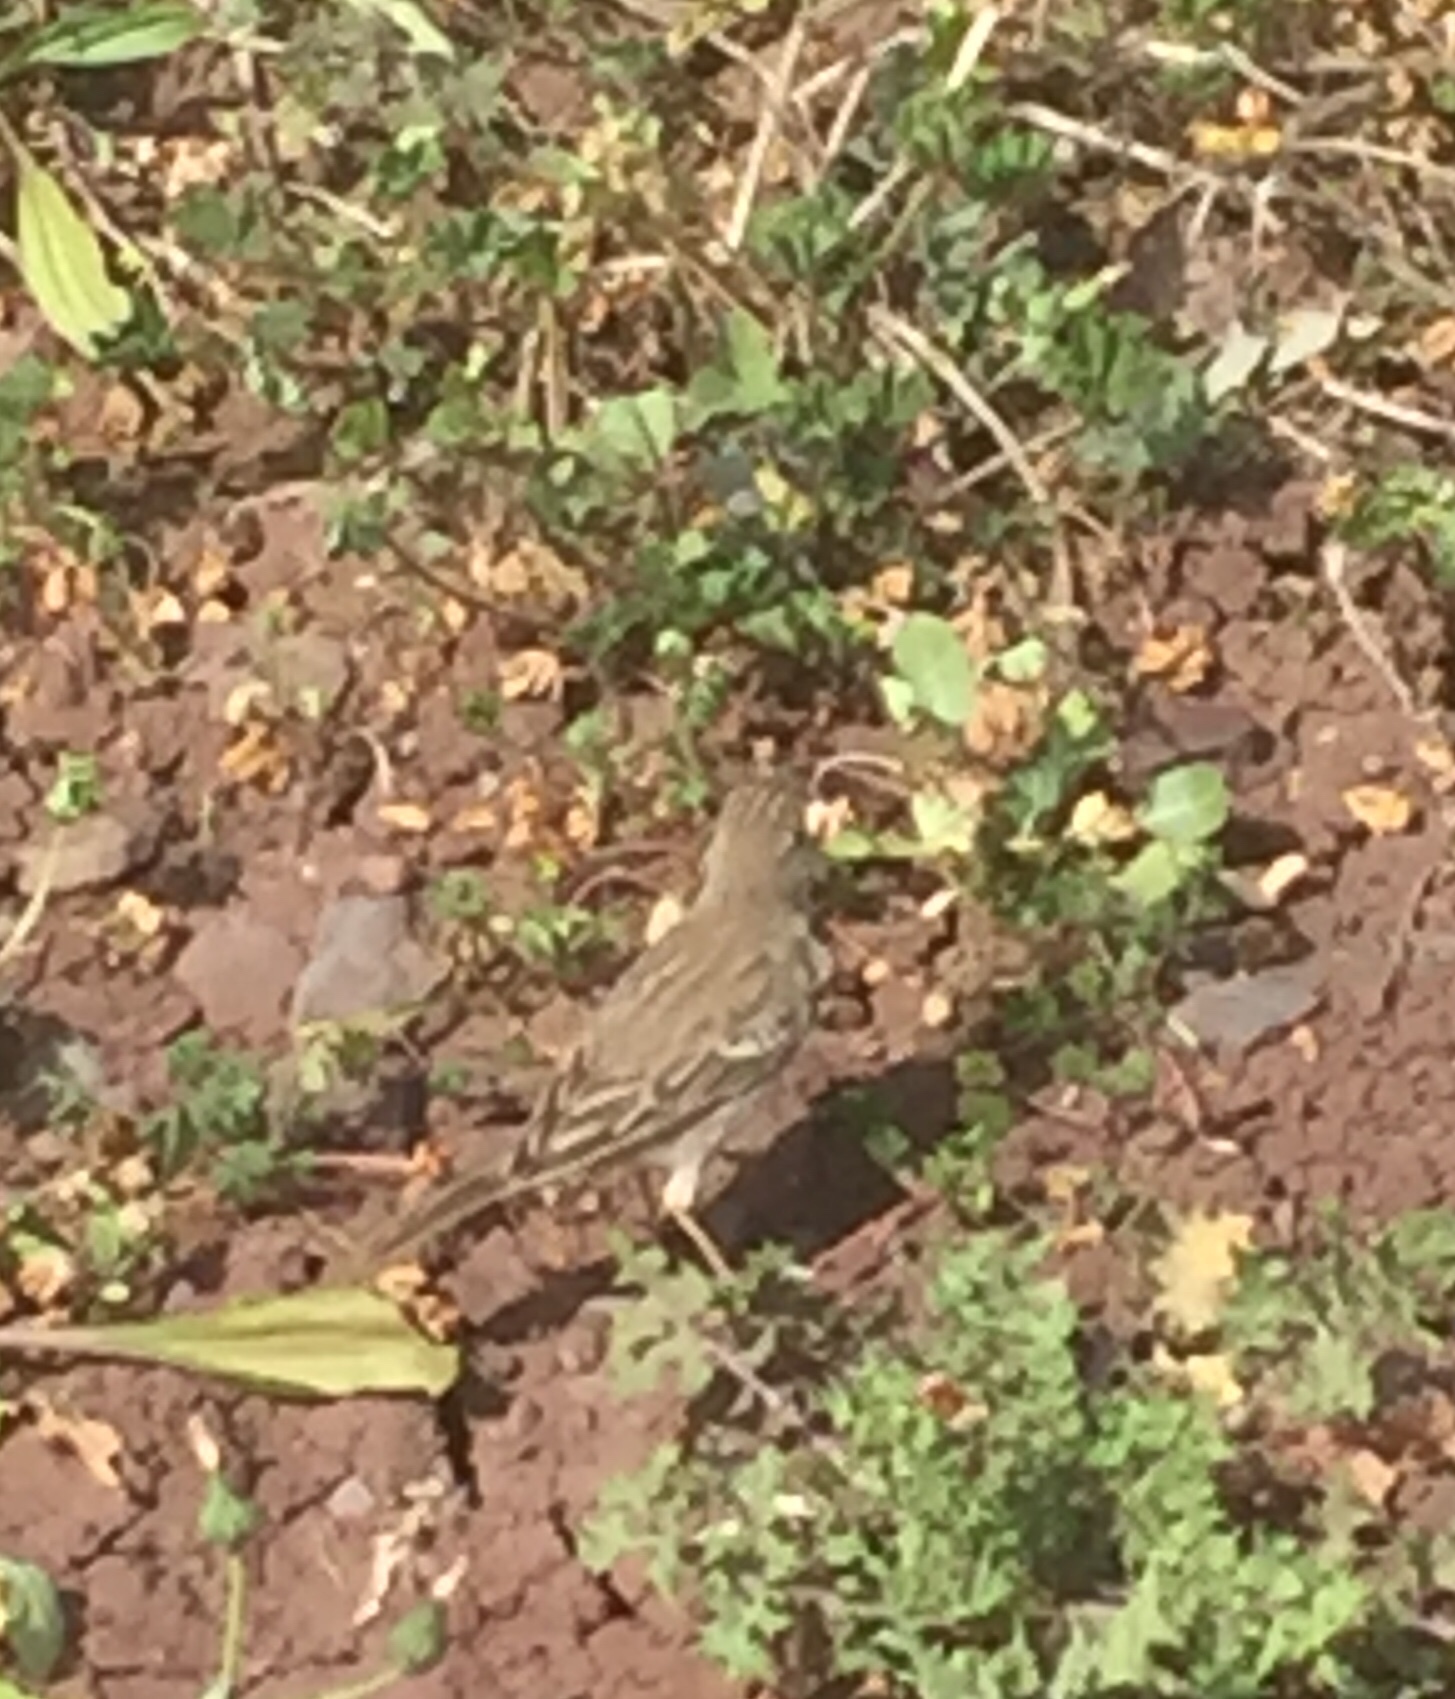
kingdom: Animalia
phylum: Chordata
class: Aves
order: Passeriformes
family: Motacillidae
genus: Anthus
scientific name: Anthus berthelotii
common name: Berthelot's pipit
